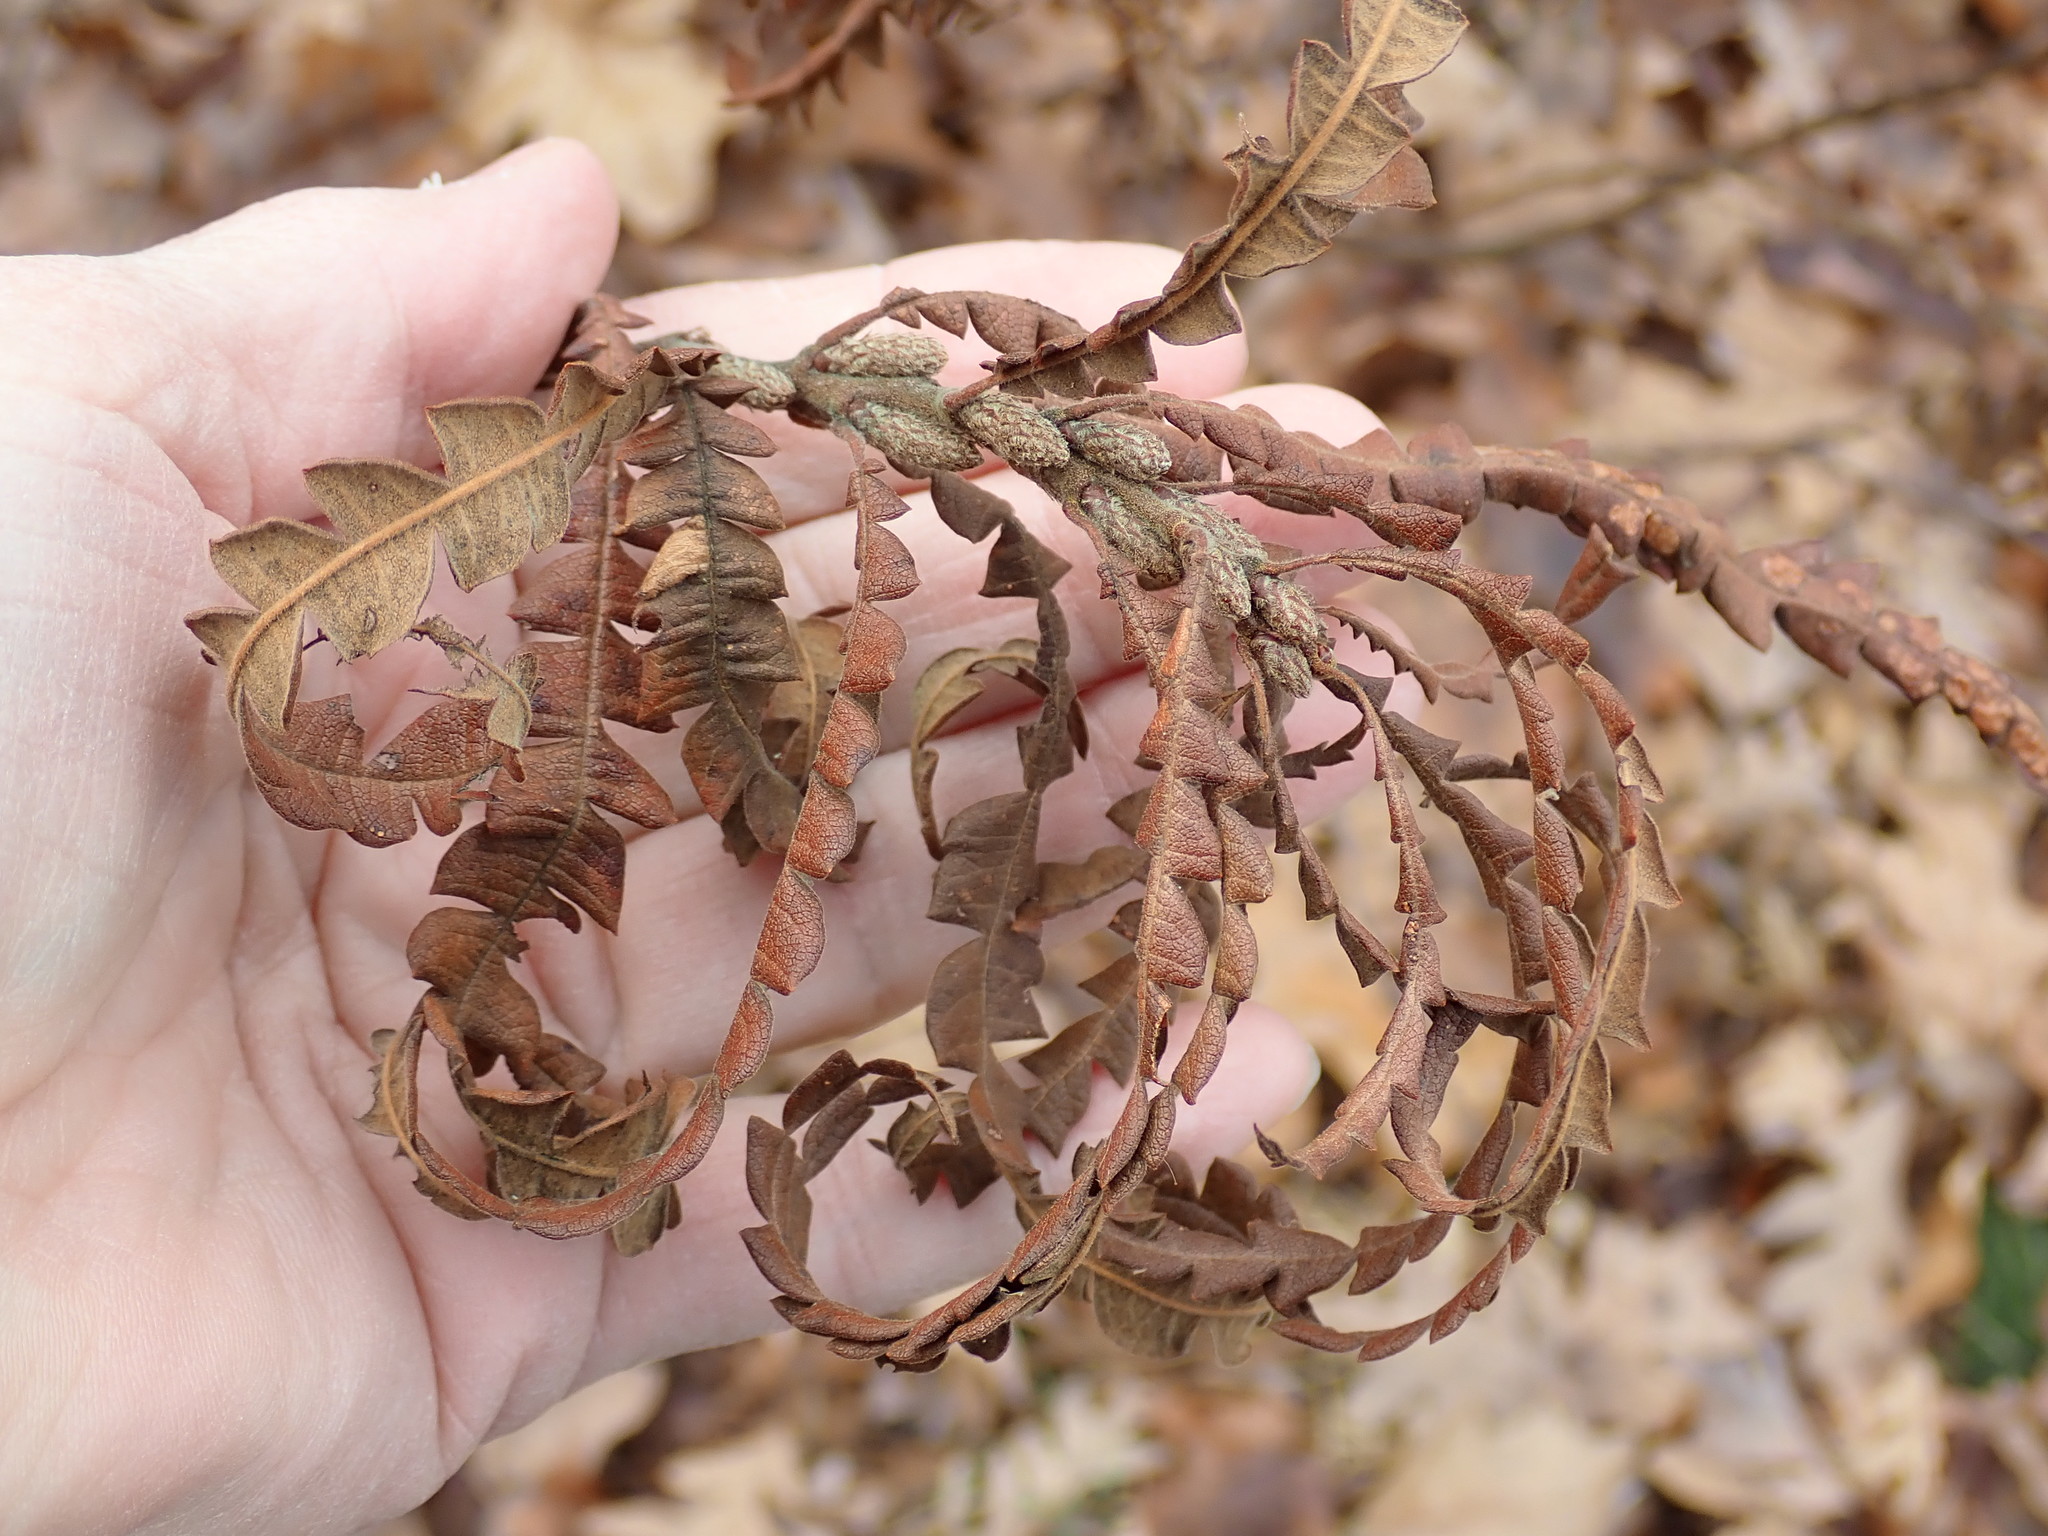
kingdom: Plantae
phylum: Tracheophyta
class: Magnoliopsida
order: Fagales
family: Myricaceae
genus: Comptonia
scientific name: Comptonia peregrina
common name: Sweet-fern
